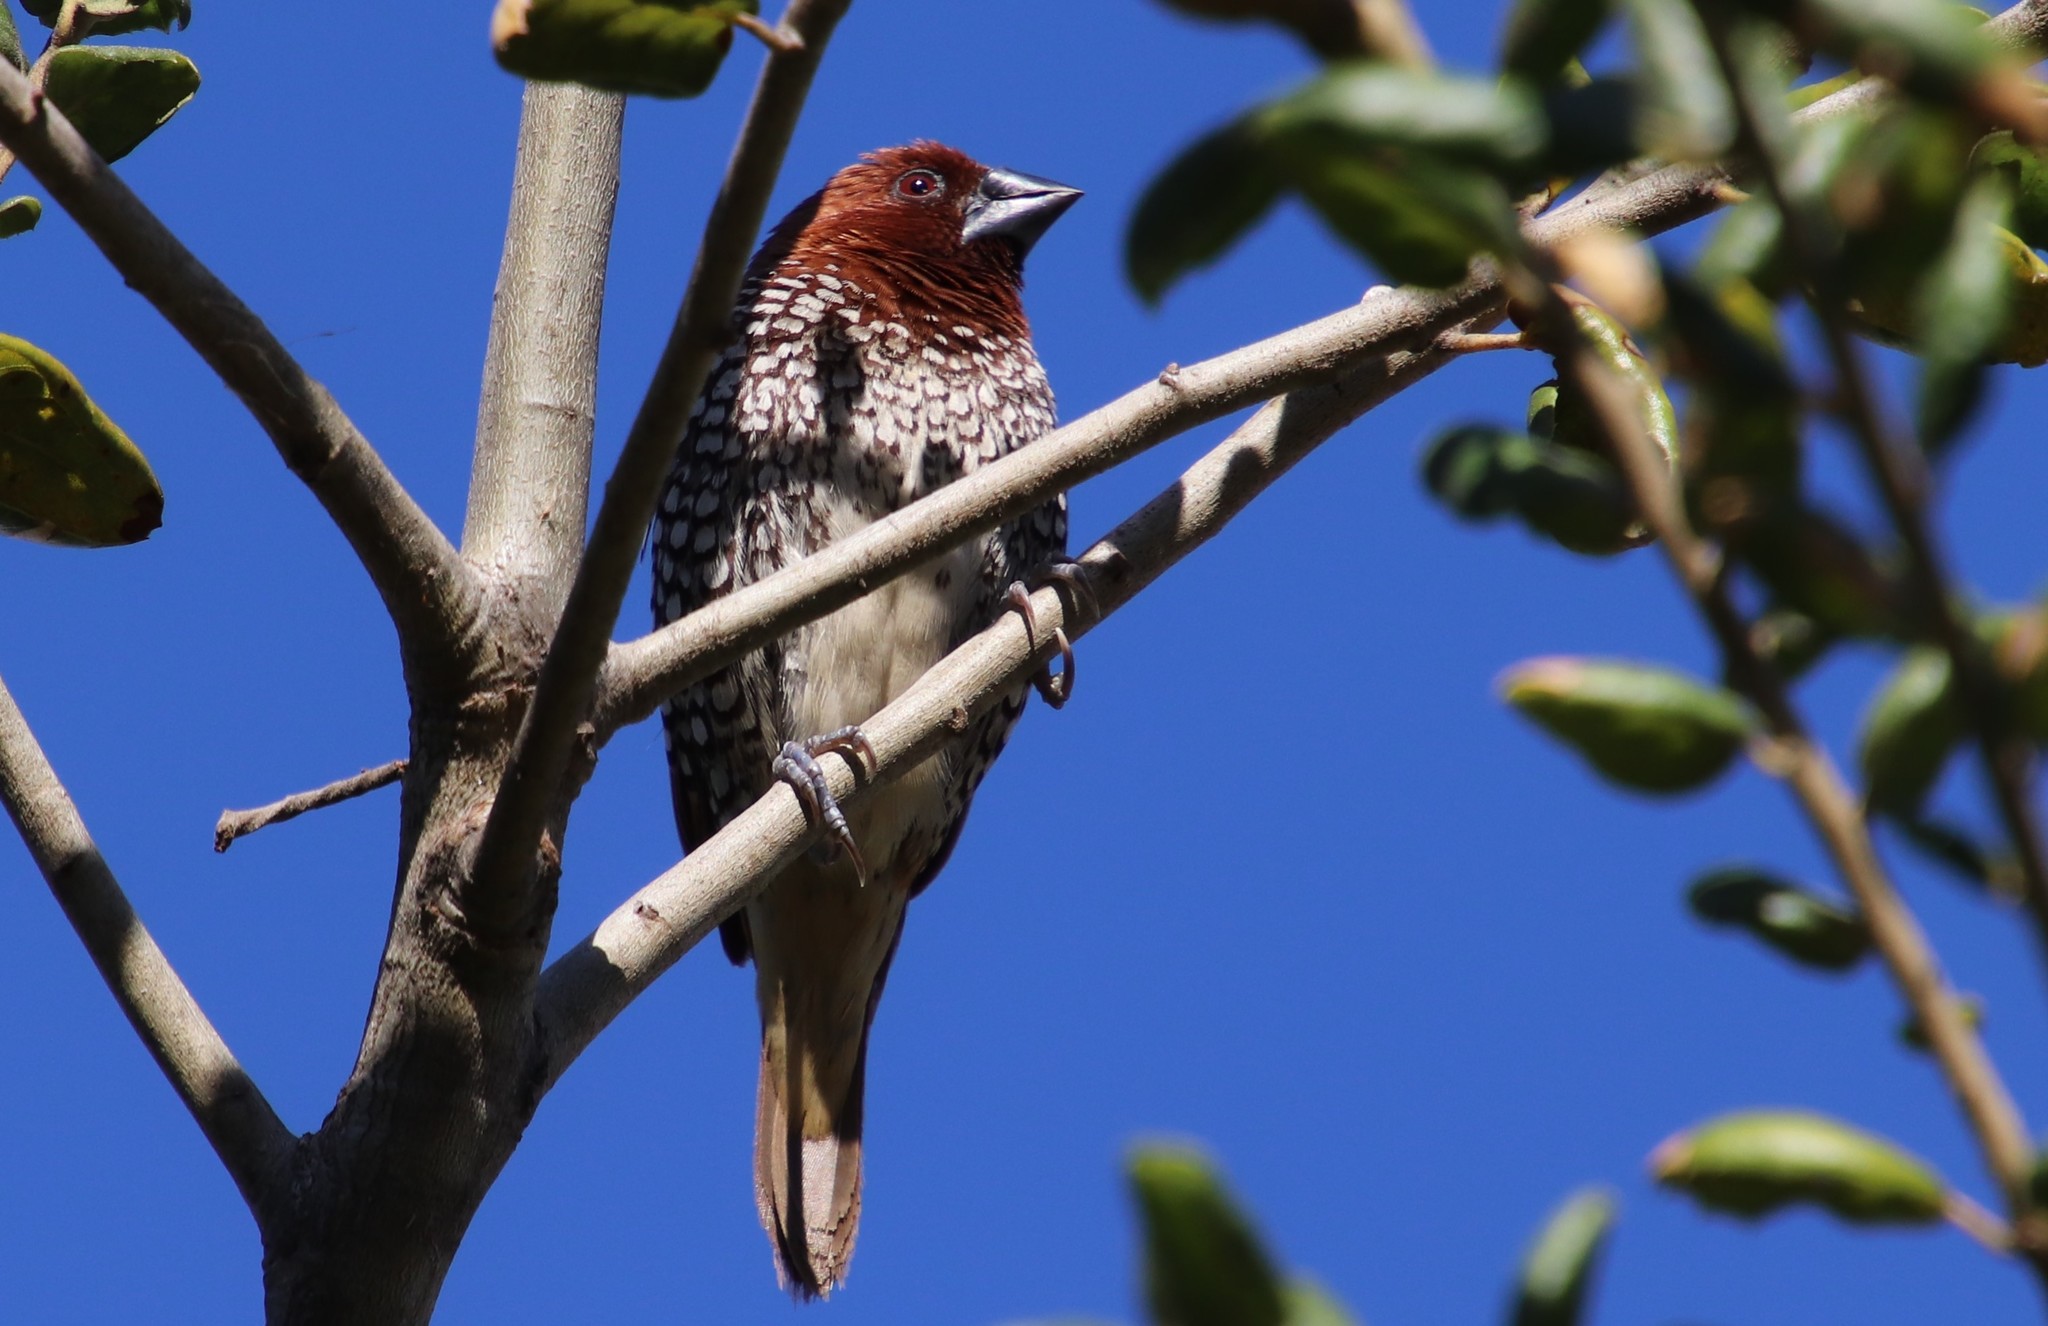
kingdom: Animalia
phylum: Chordata
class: Aves
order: Passeriformes
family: Estrildidae
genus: Lonchura
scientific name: Lonchura punctulata
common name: Scaly-breasted munia
